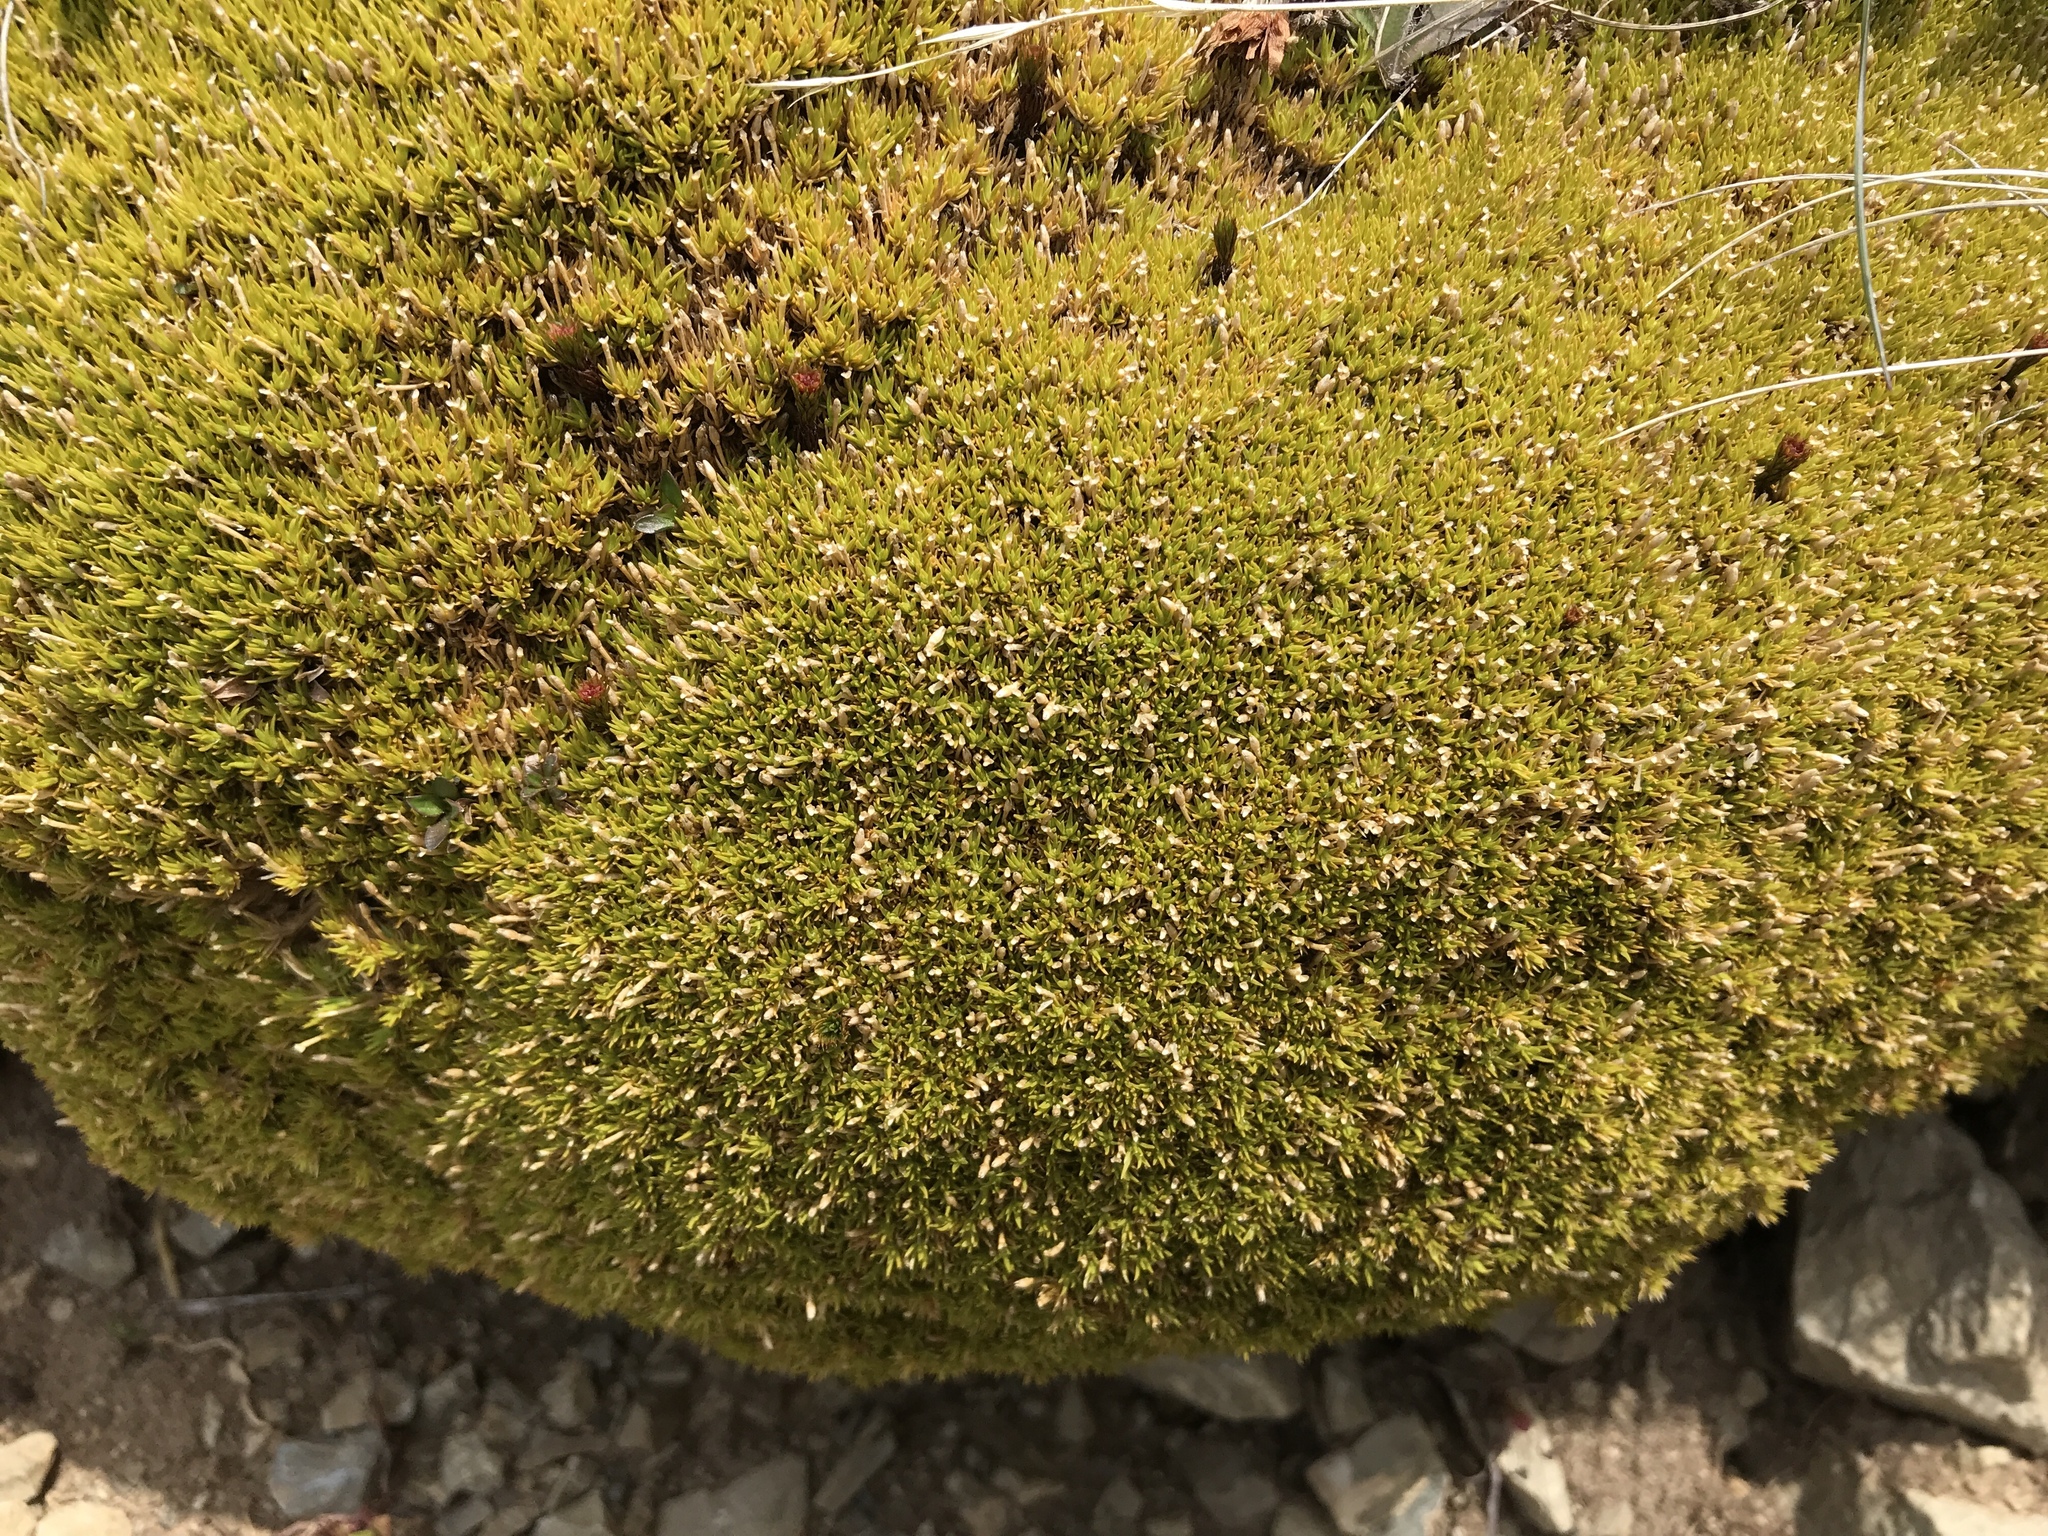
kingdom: Plantae
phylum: Tracheophyta
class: Magnoliopsida
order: Caryophyllales
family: Caryophyllaceae
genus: Scleranthus
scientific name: Scleranthus uniflorus
